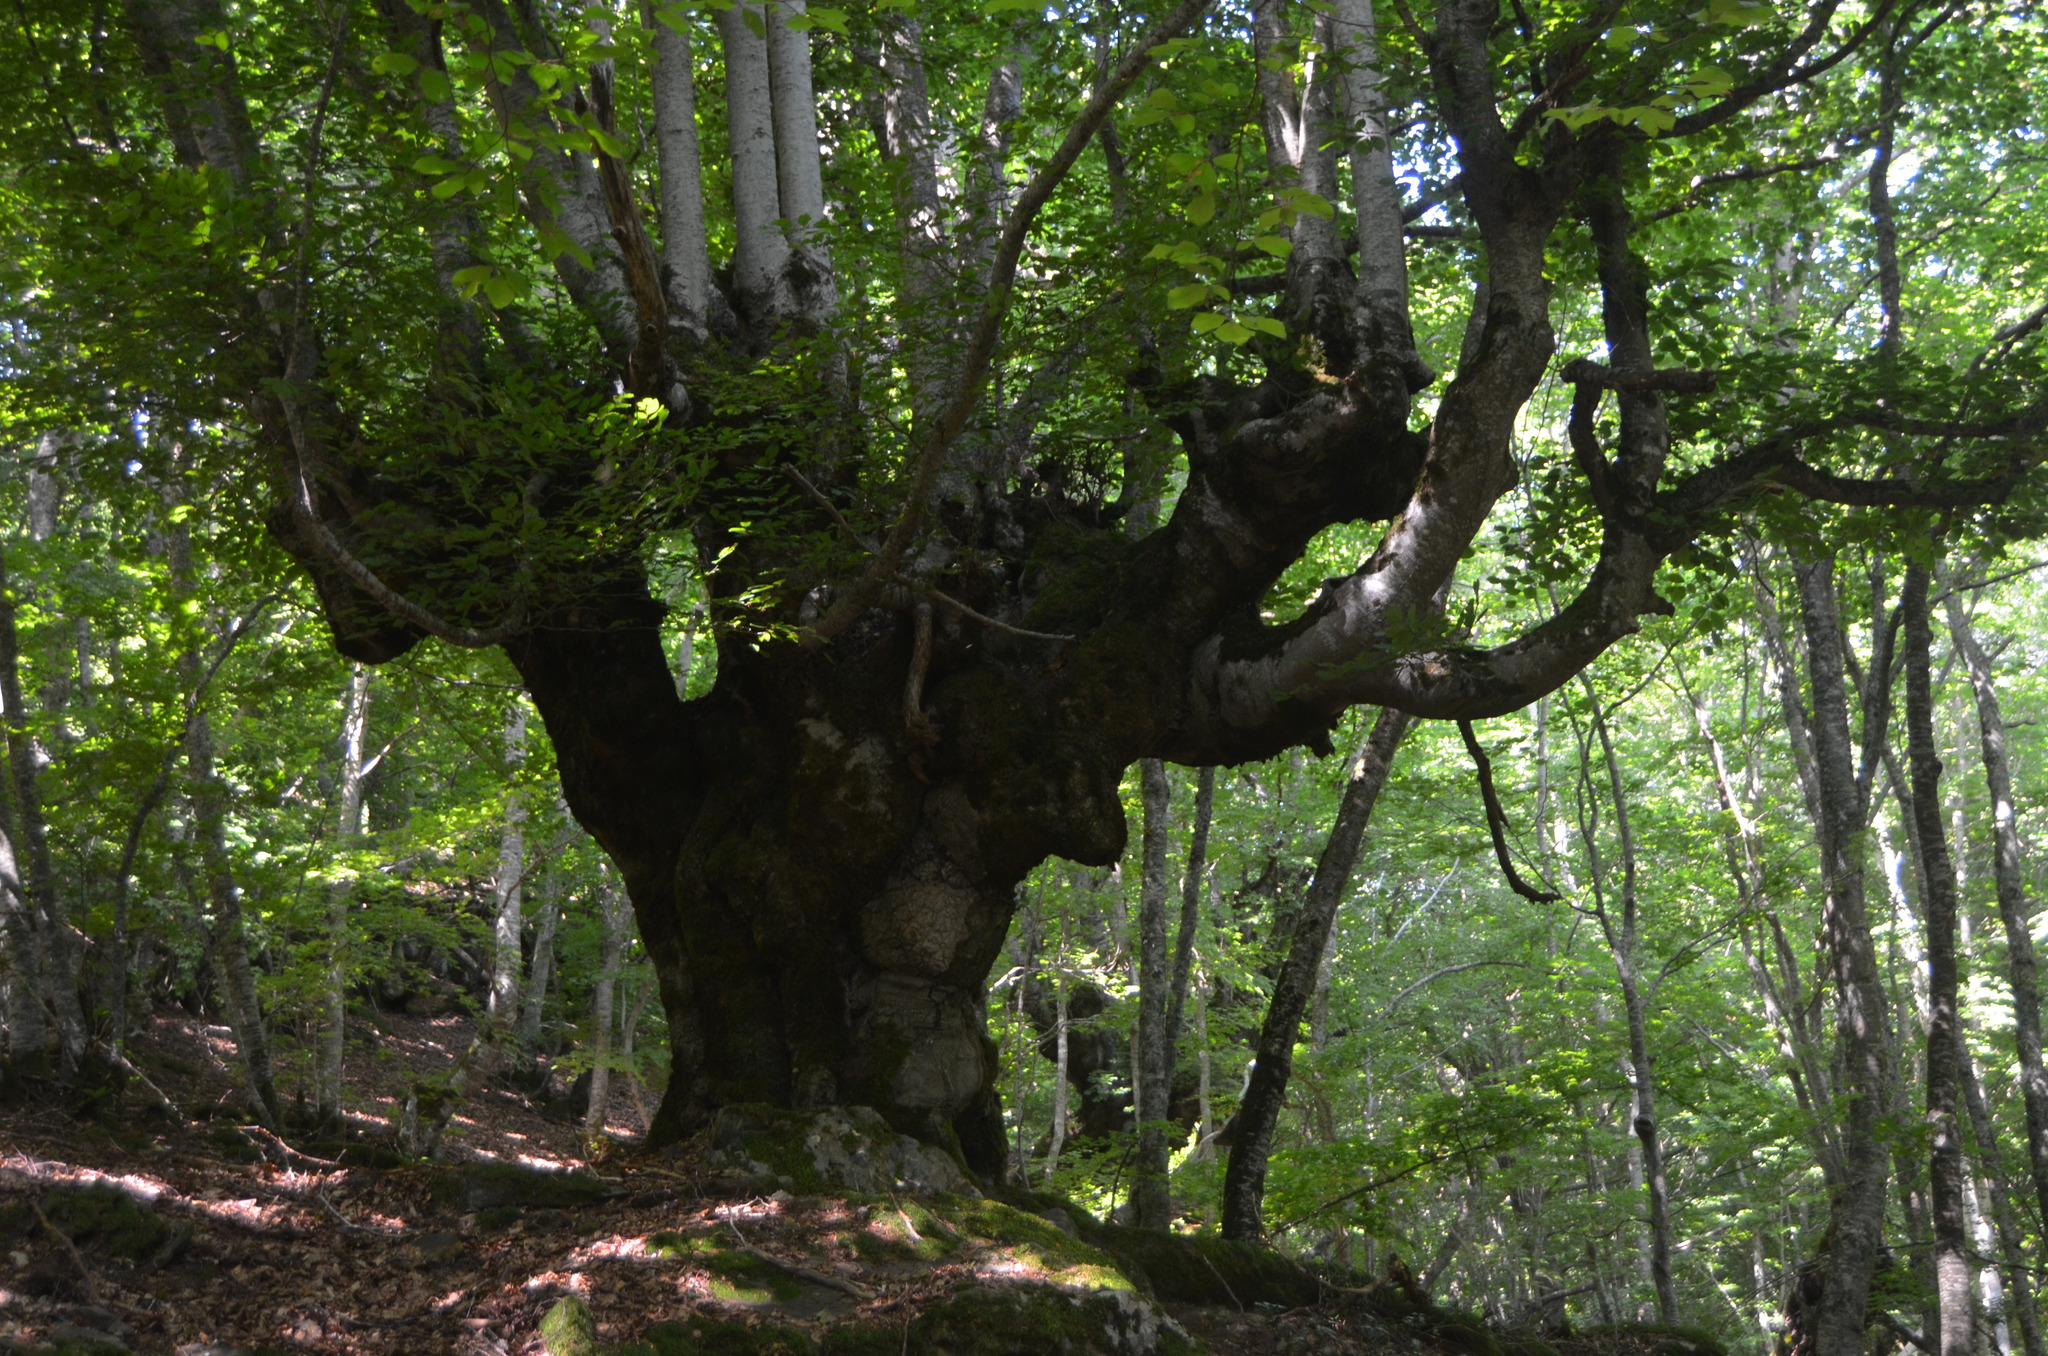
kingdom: Plantae
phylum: Tracheophyta
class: Magnoliopsida
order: Fagales
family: Fagaceae
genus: Fagus
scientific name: Fagus sylvatica
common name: Beech
